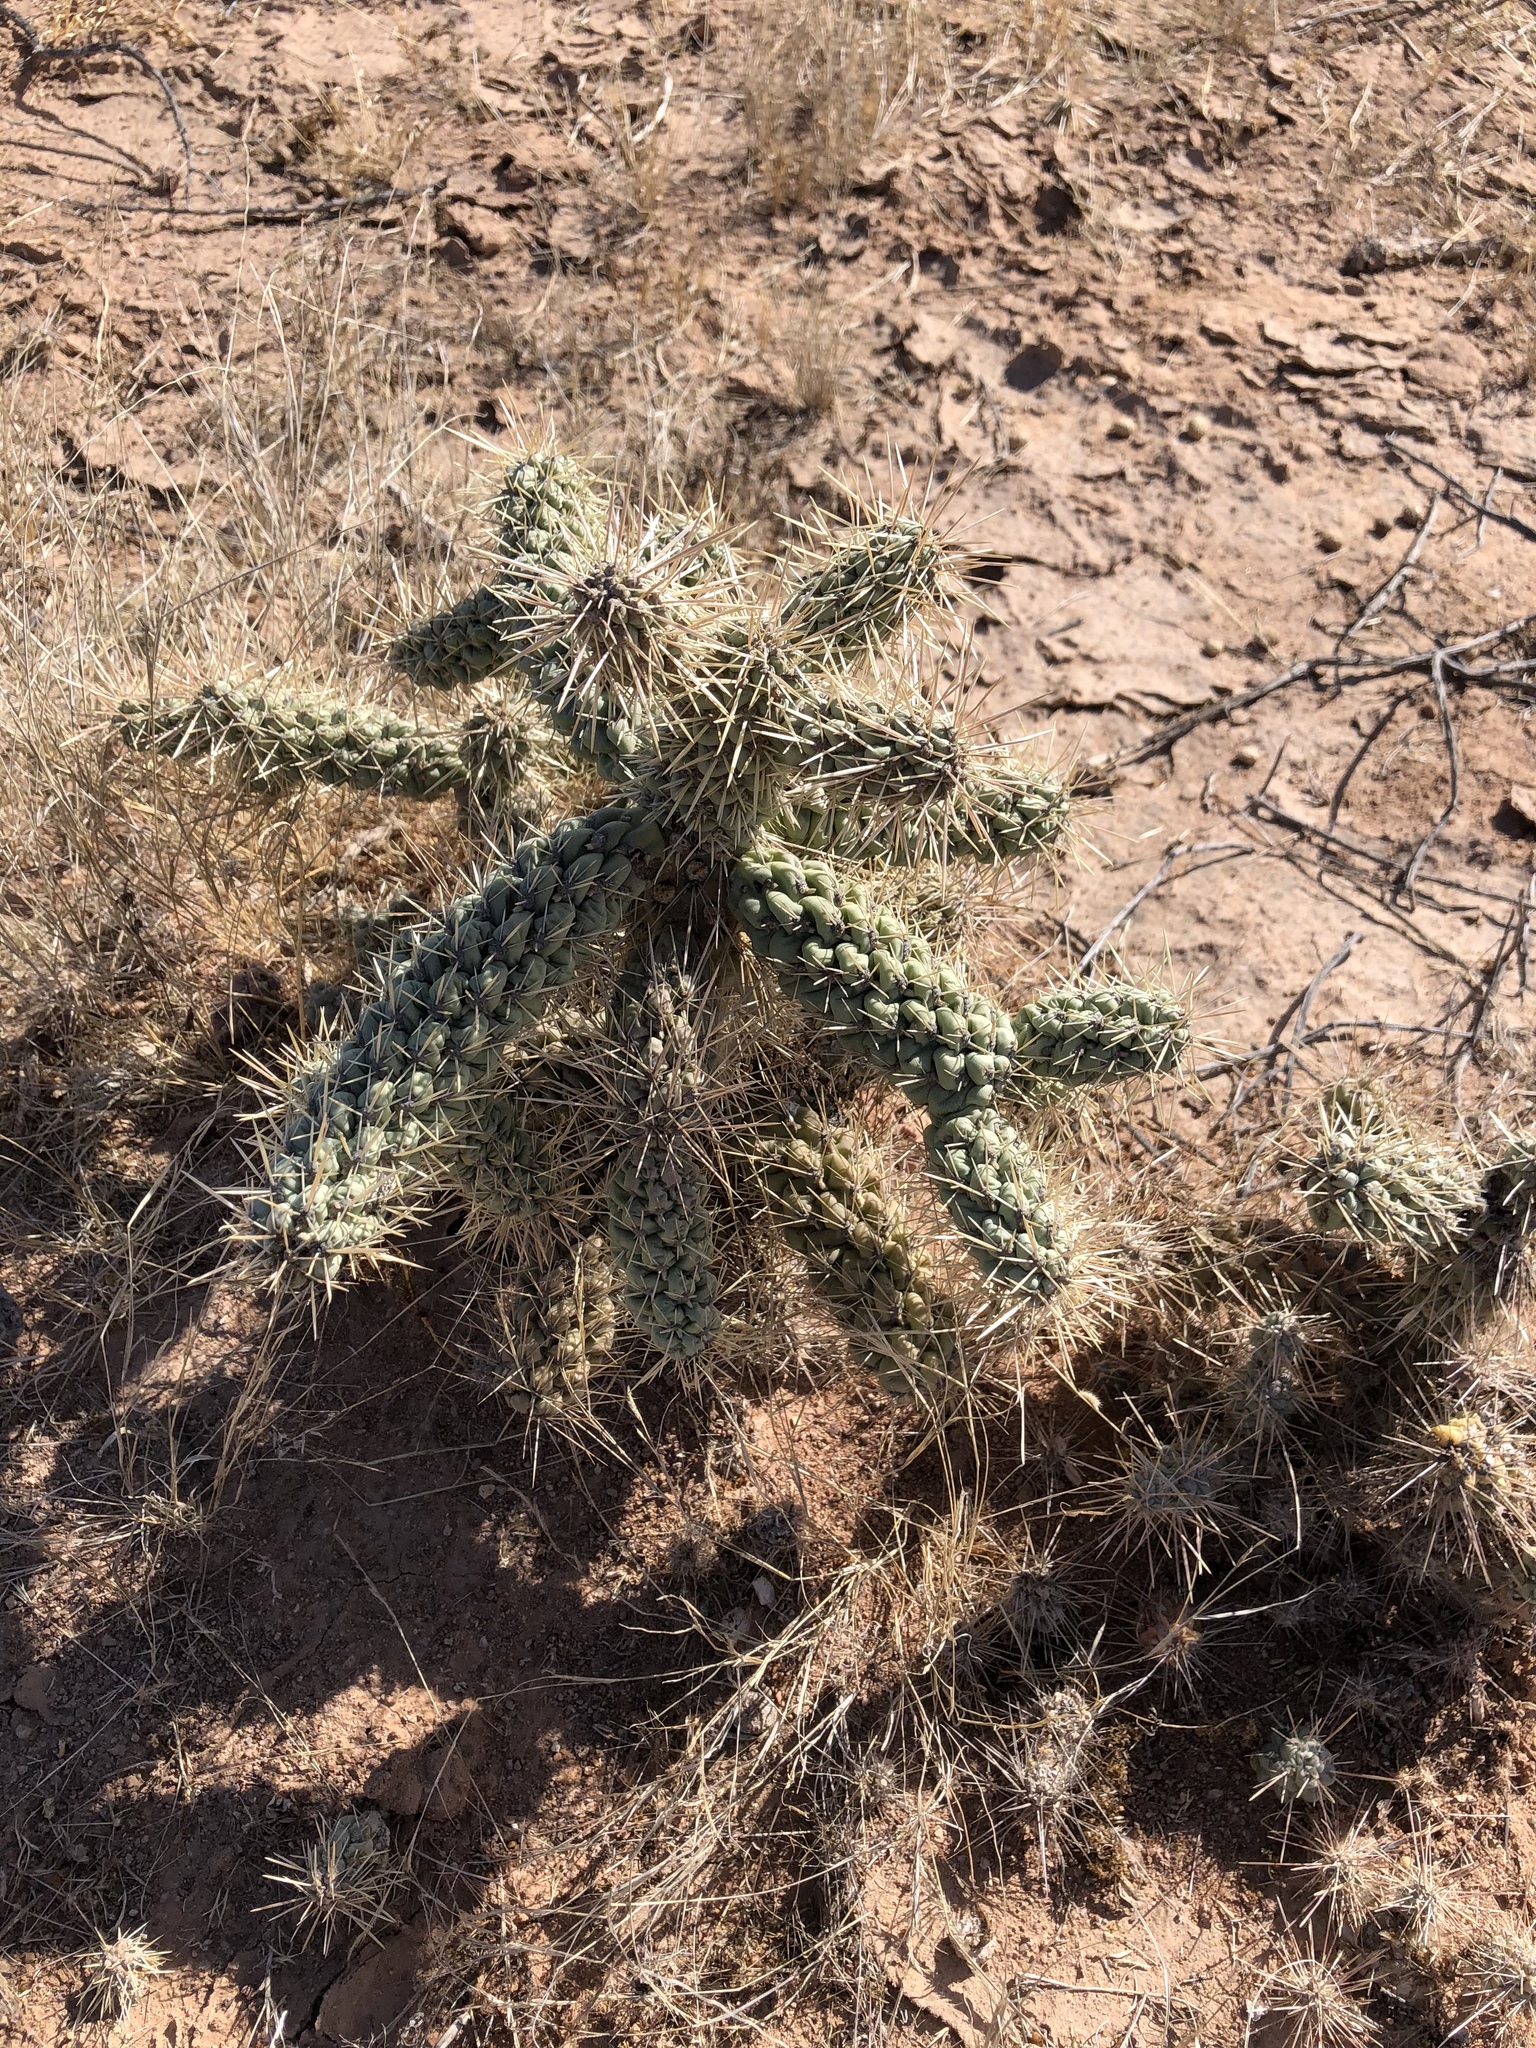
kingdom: Plantae
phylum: Tracheophyta
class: Magnoliopsida
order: Caryophyllales
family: Cactaceae
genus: Cylindropuntia
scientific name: Cylindropuntia fulgida
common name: Jumping cholla
